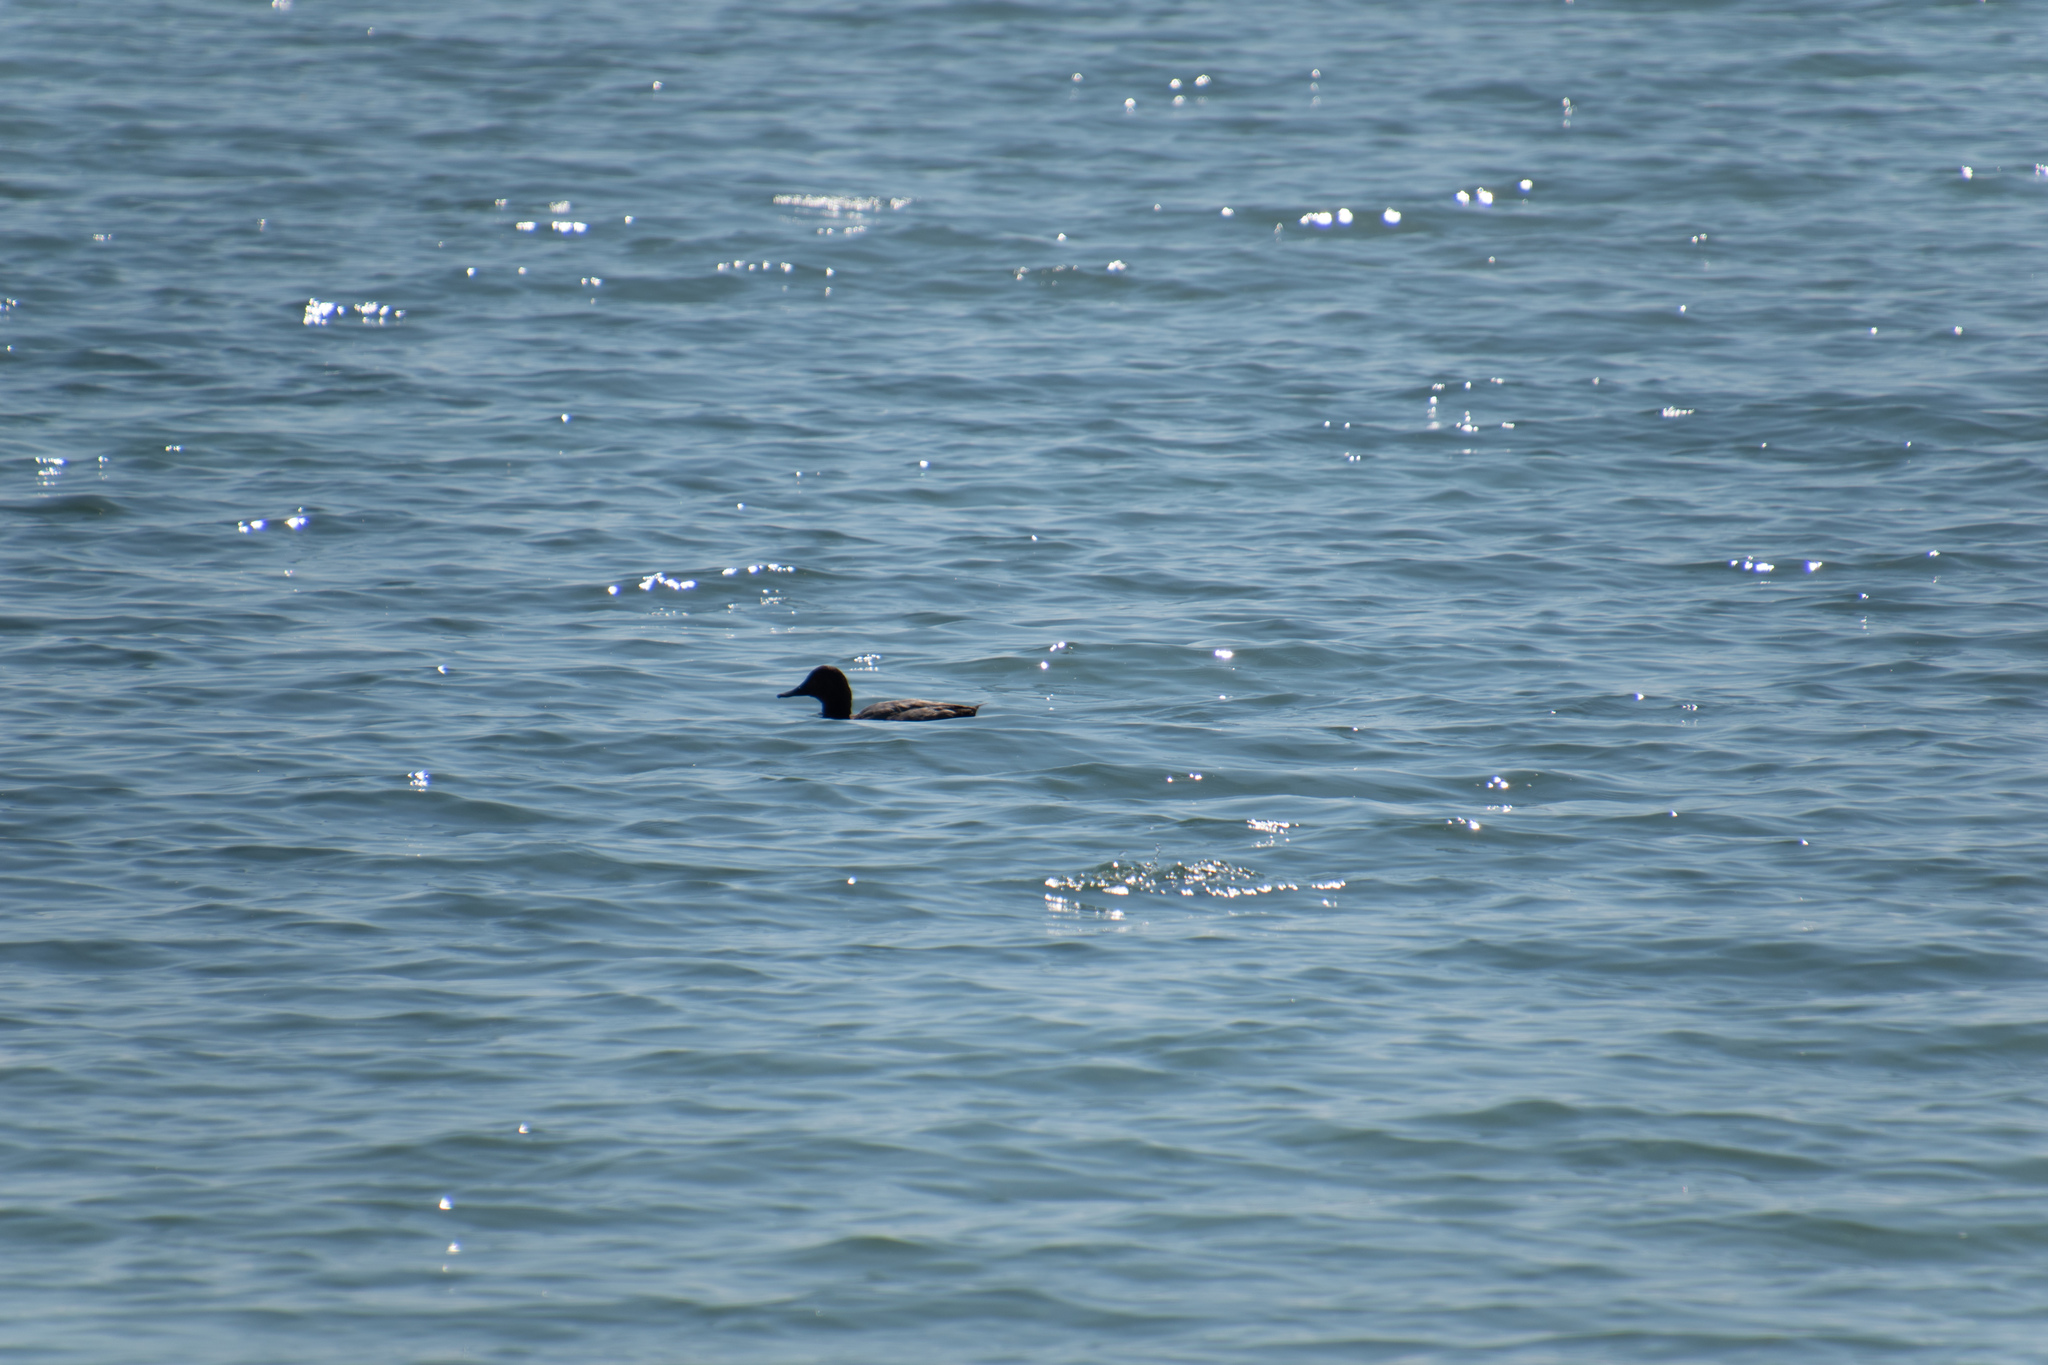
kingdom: Animalia
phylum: Chordata
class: Aves
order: Anseriformes
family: Anatidae
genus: Aythya
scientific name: Aythya ferina
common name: Common pochard
